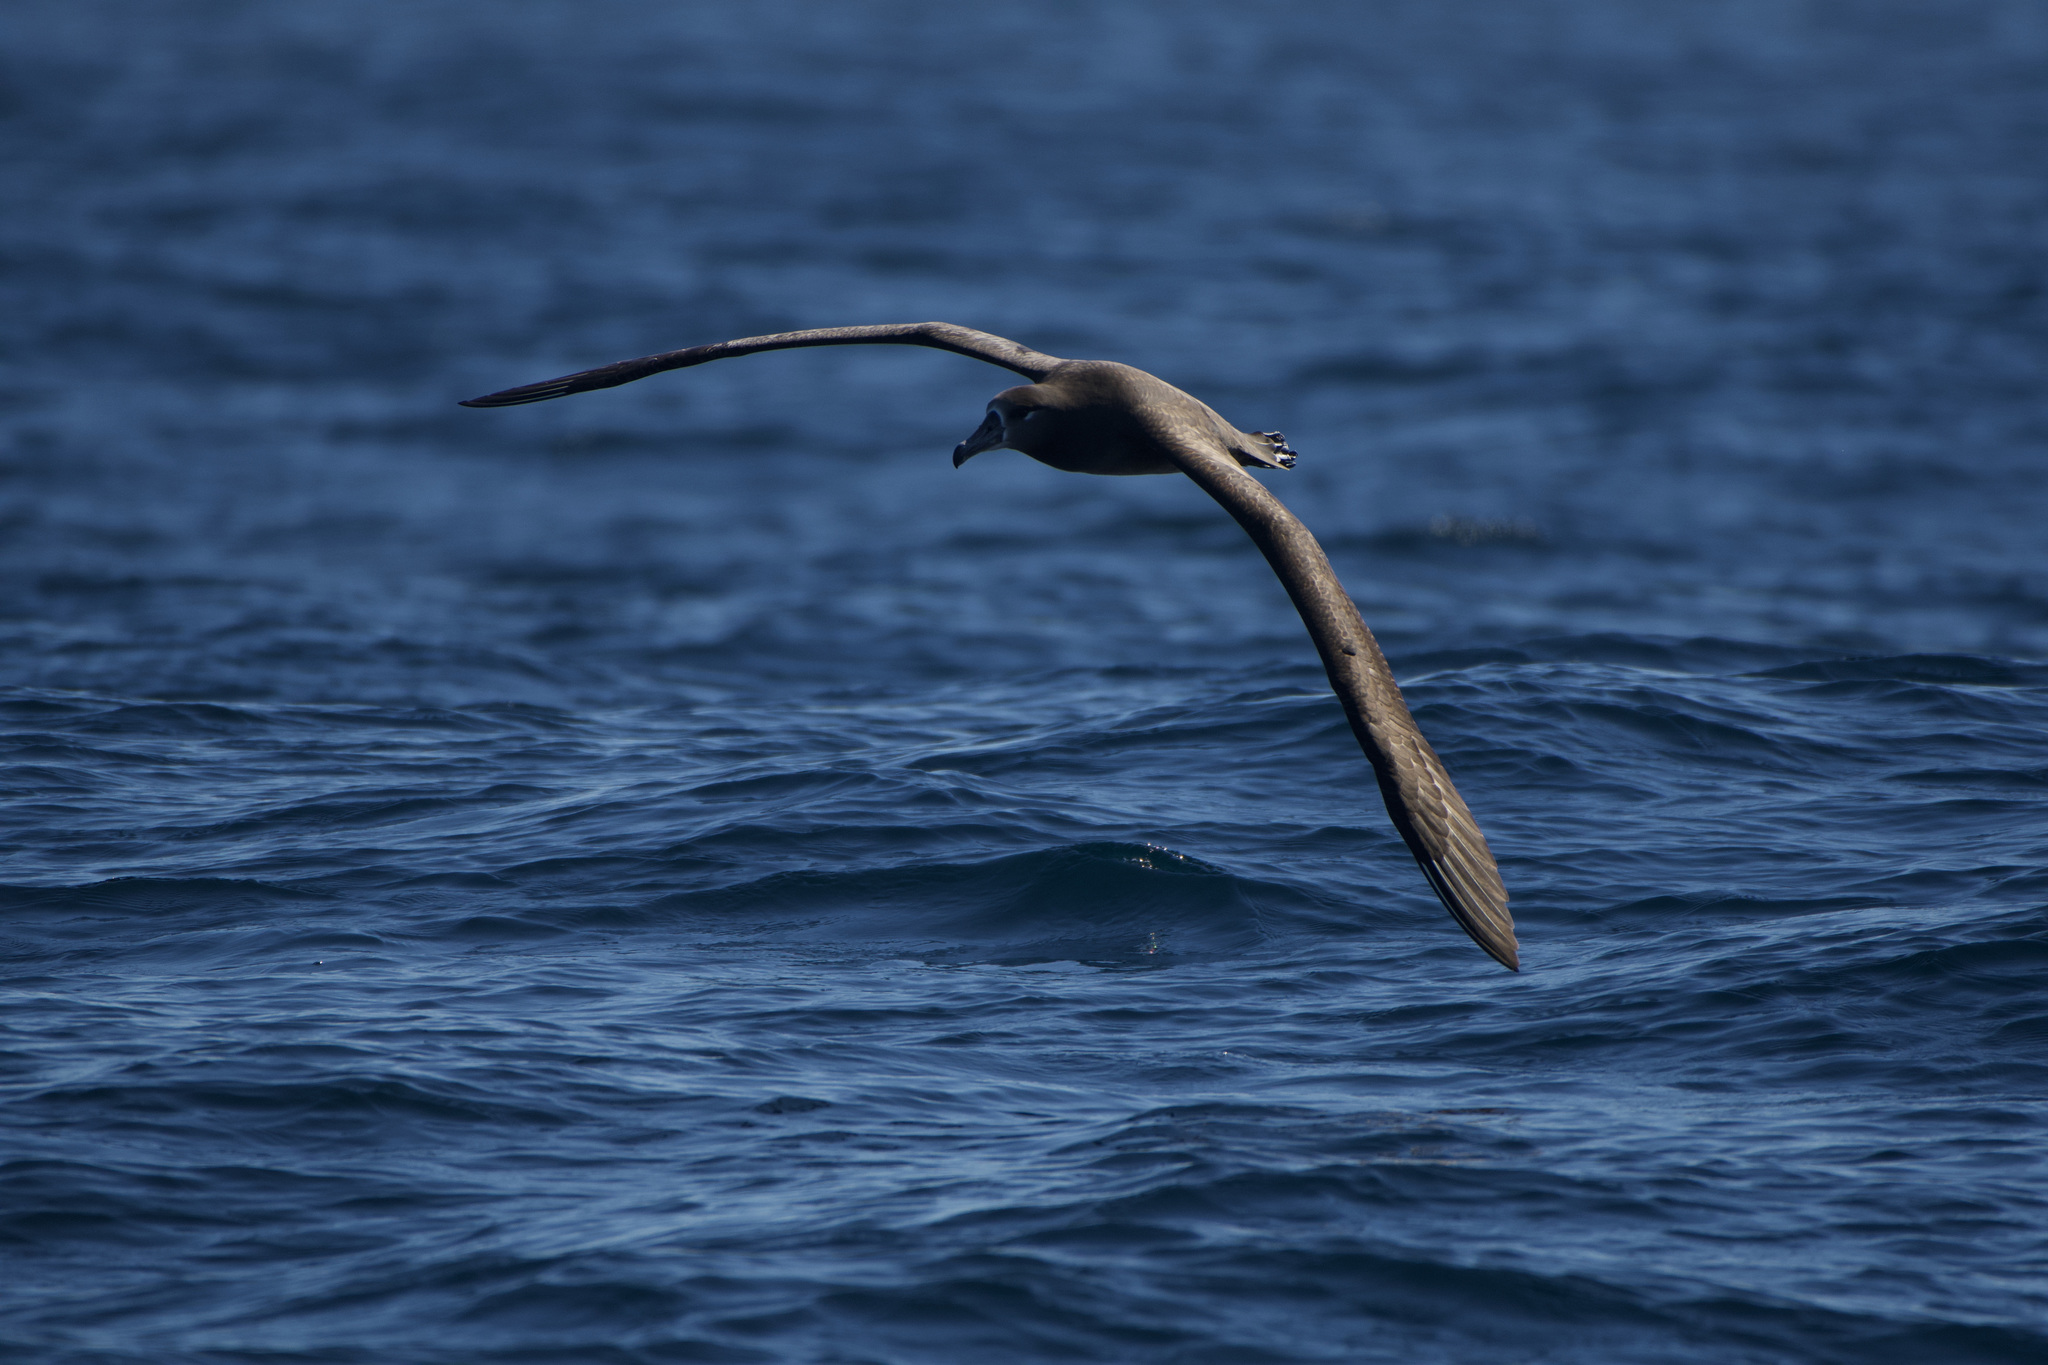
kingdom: Animalia
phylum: Chordata
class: Aves
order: Procellariiformes
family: Diomedeidae
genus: Phoebastria
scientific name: Phoebastria nigripes
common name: Black-footed albatross
